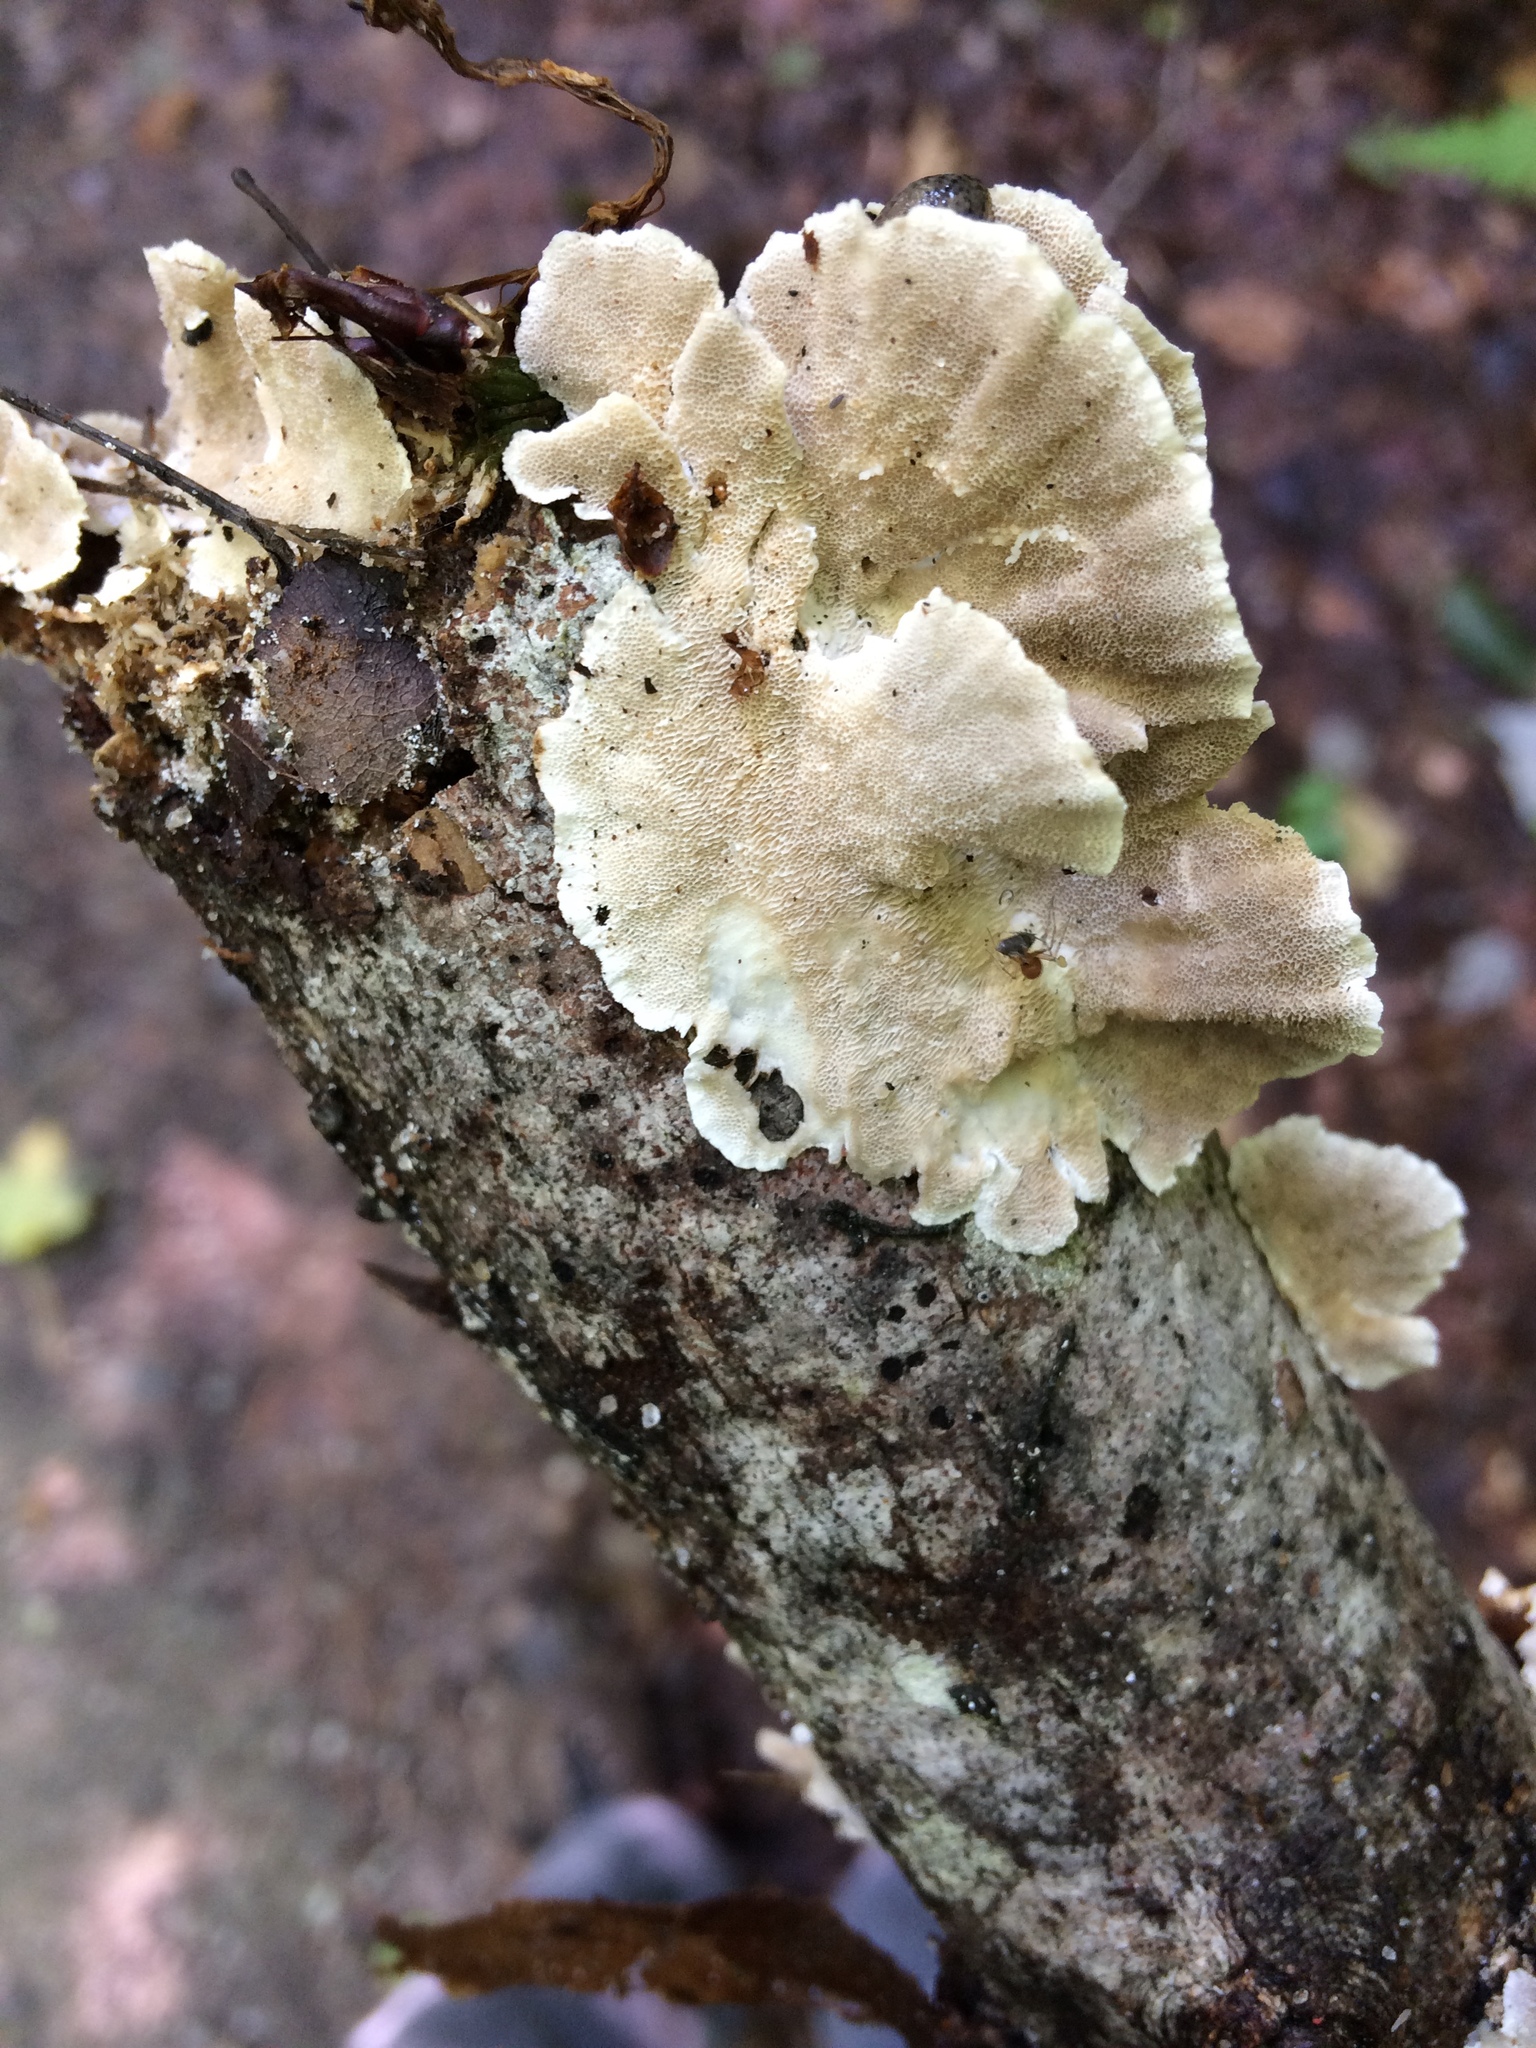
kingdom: Fungi
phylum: Basidiomycota
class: Agaricomycetes
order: Polyporales
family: Polyporaceae
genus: Trametes
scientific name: Trametes versicolor
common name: Turkeytail
